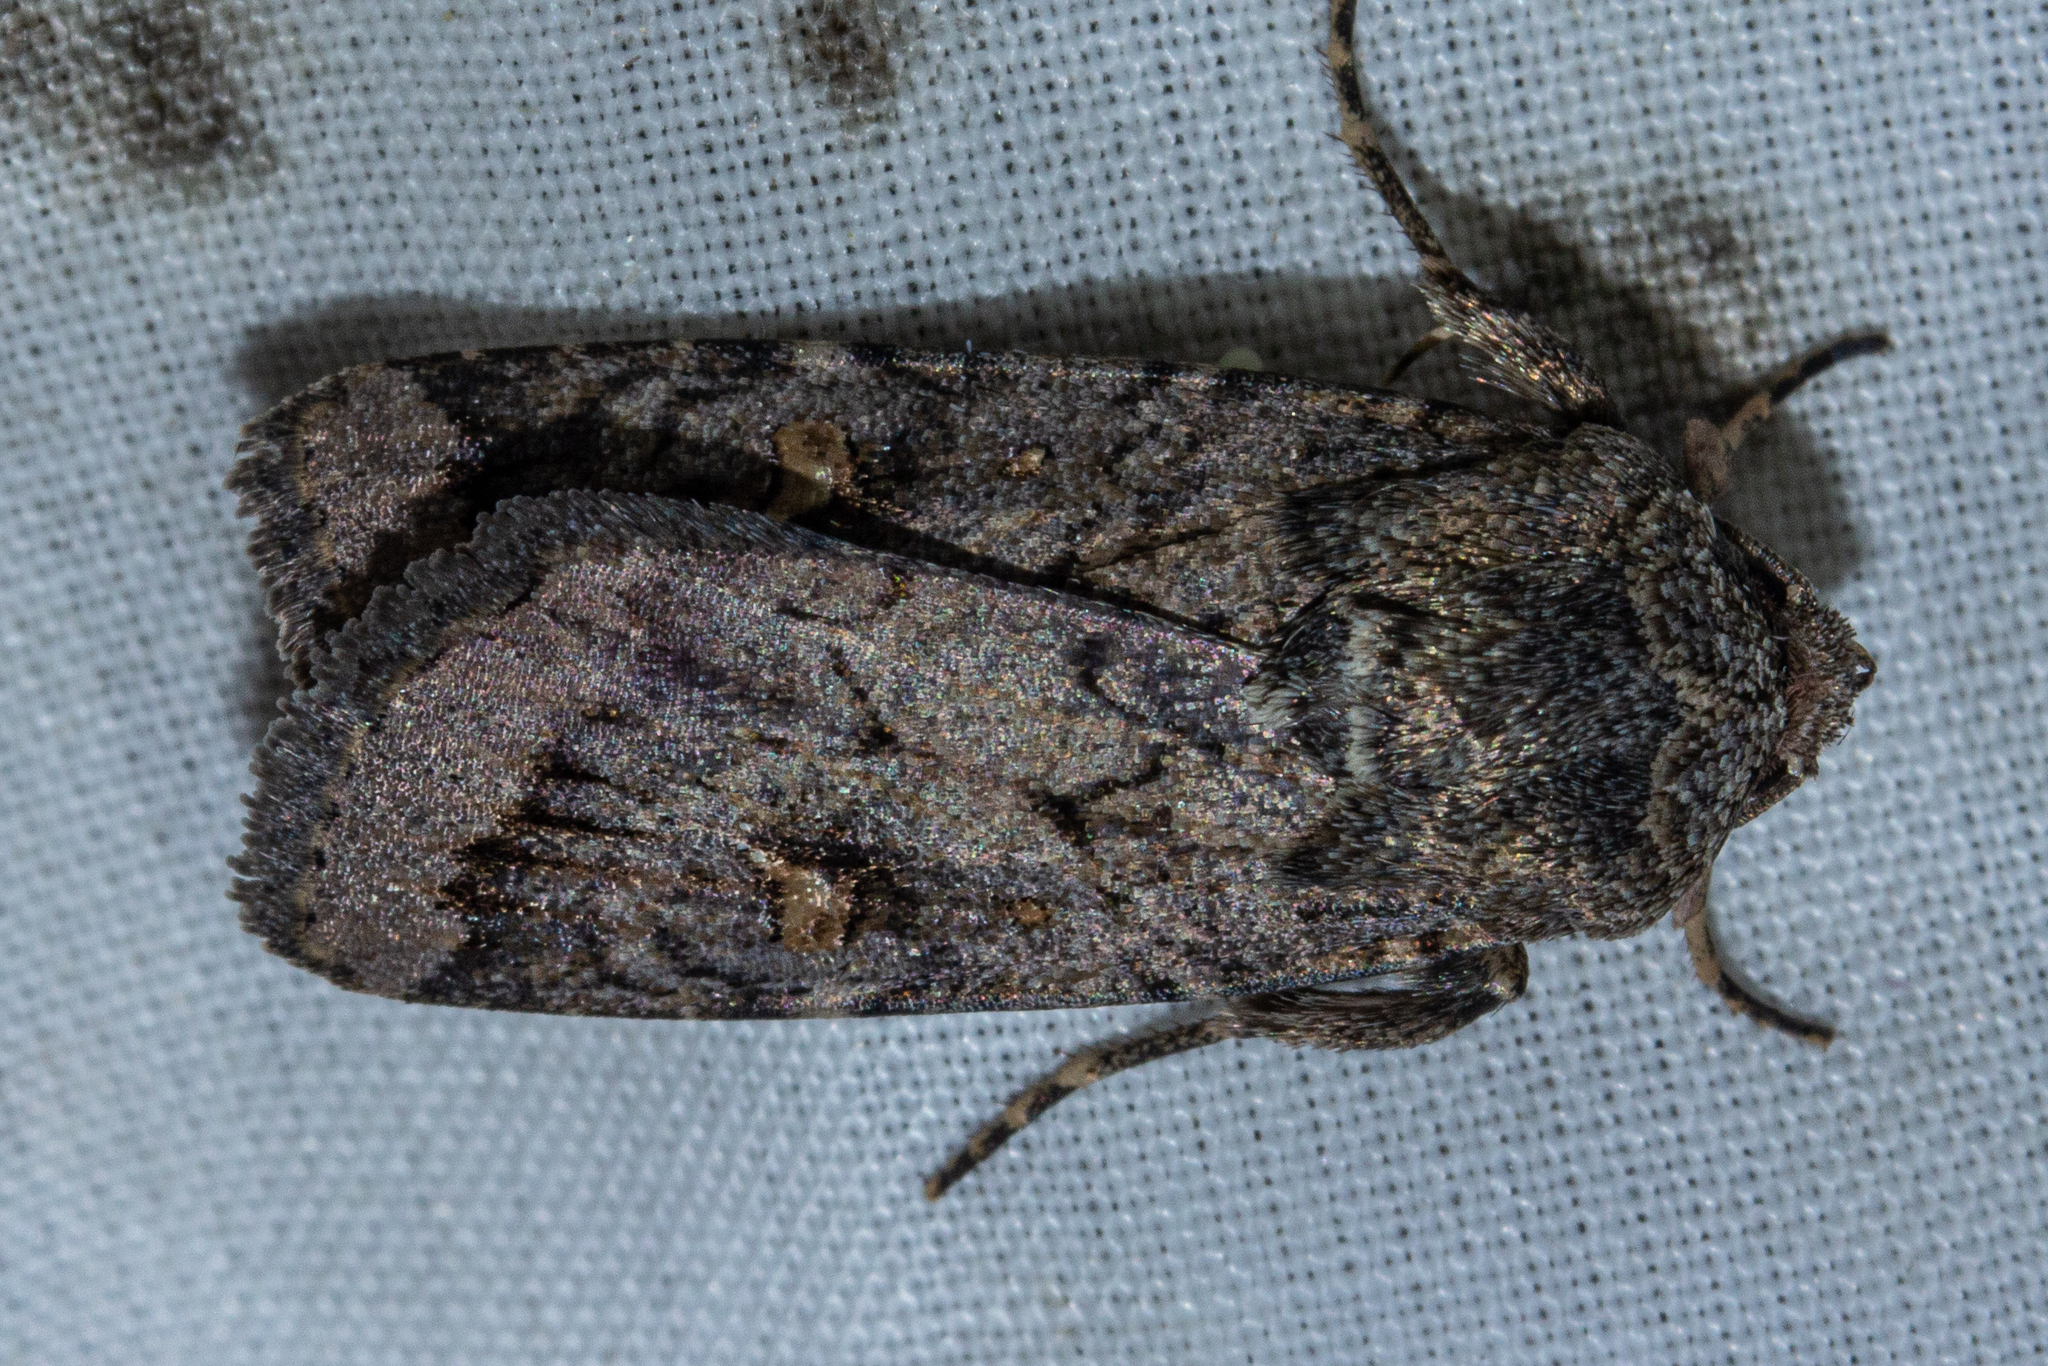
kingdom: Animalia
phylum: Arthropoda
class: Insecta
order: Lepidoptera
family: Noctuidae
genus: Proteuxoa
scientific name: Proteuxoa comma
